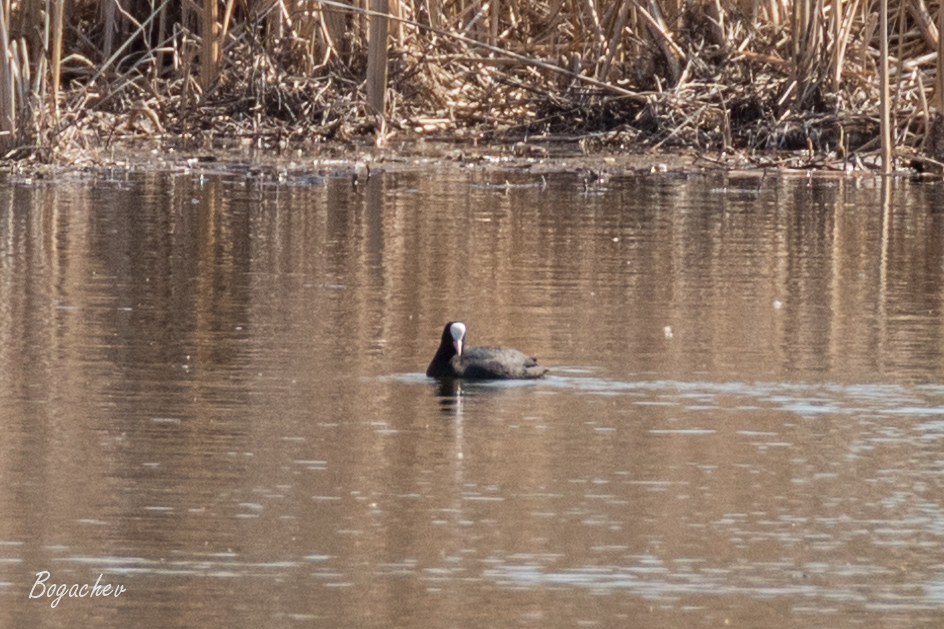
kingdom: Animalia
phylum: Chordata
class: Aves
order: Gruiformes
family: Rallidae
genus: Fulica
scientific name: Fulica atra
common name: Eurasian coot
